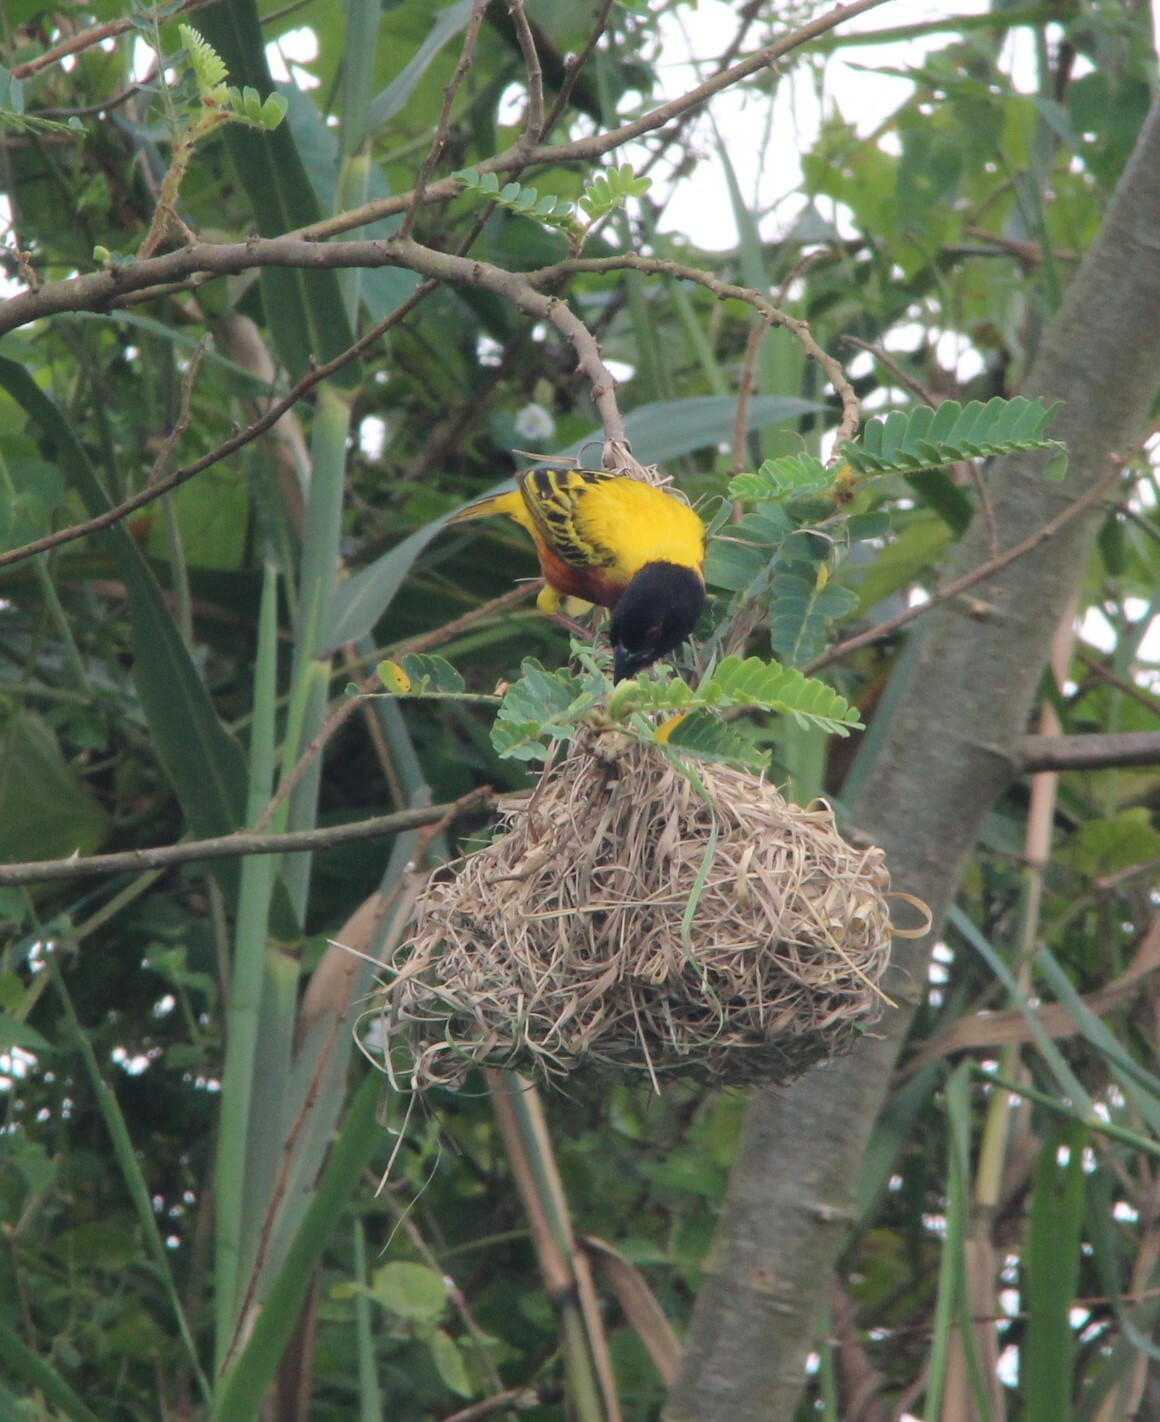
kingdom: Animalia
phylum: Chordata
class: Aves
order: Passeriformes
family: Ploceidae
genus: Ploceus
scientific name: Ploceus jacksoni
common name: Golden-backed weaver
